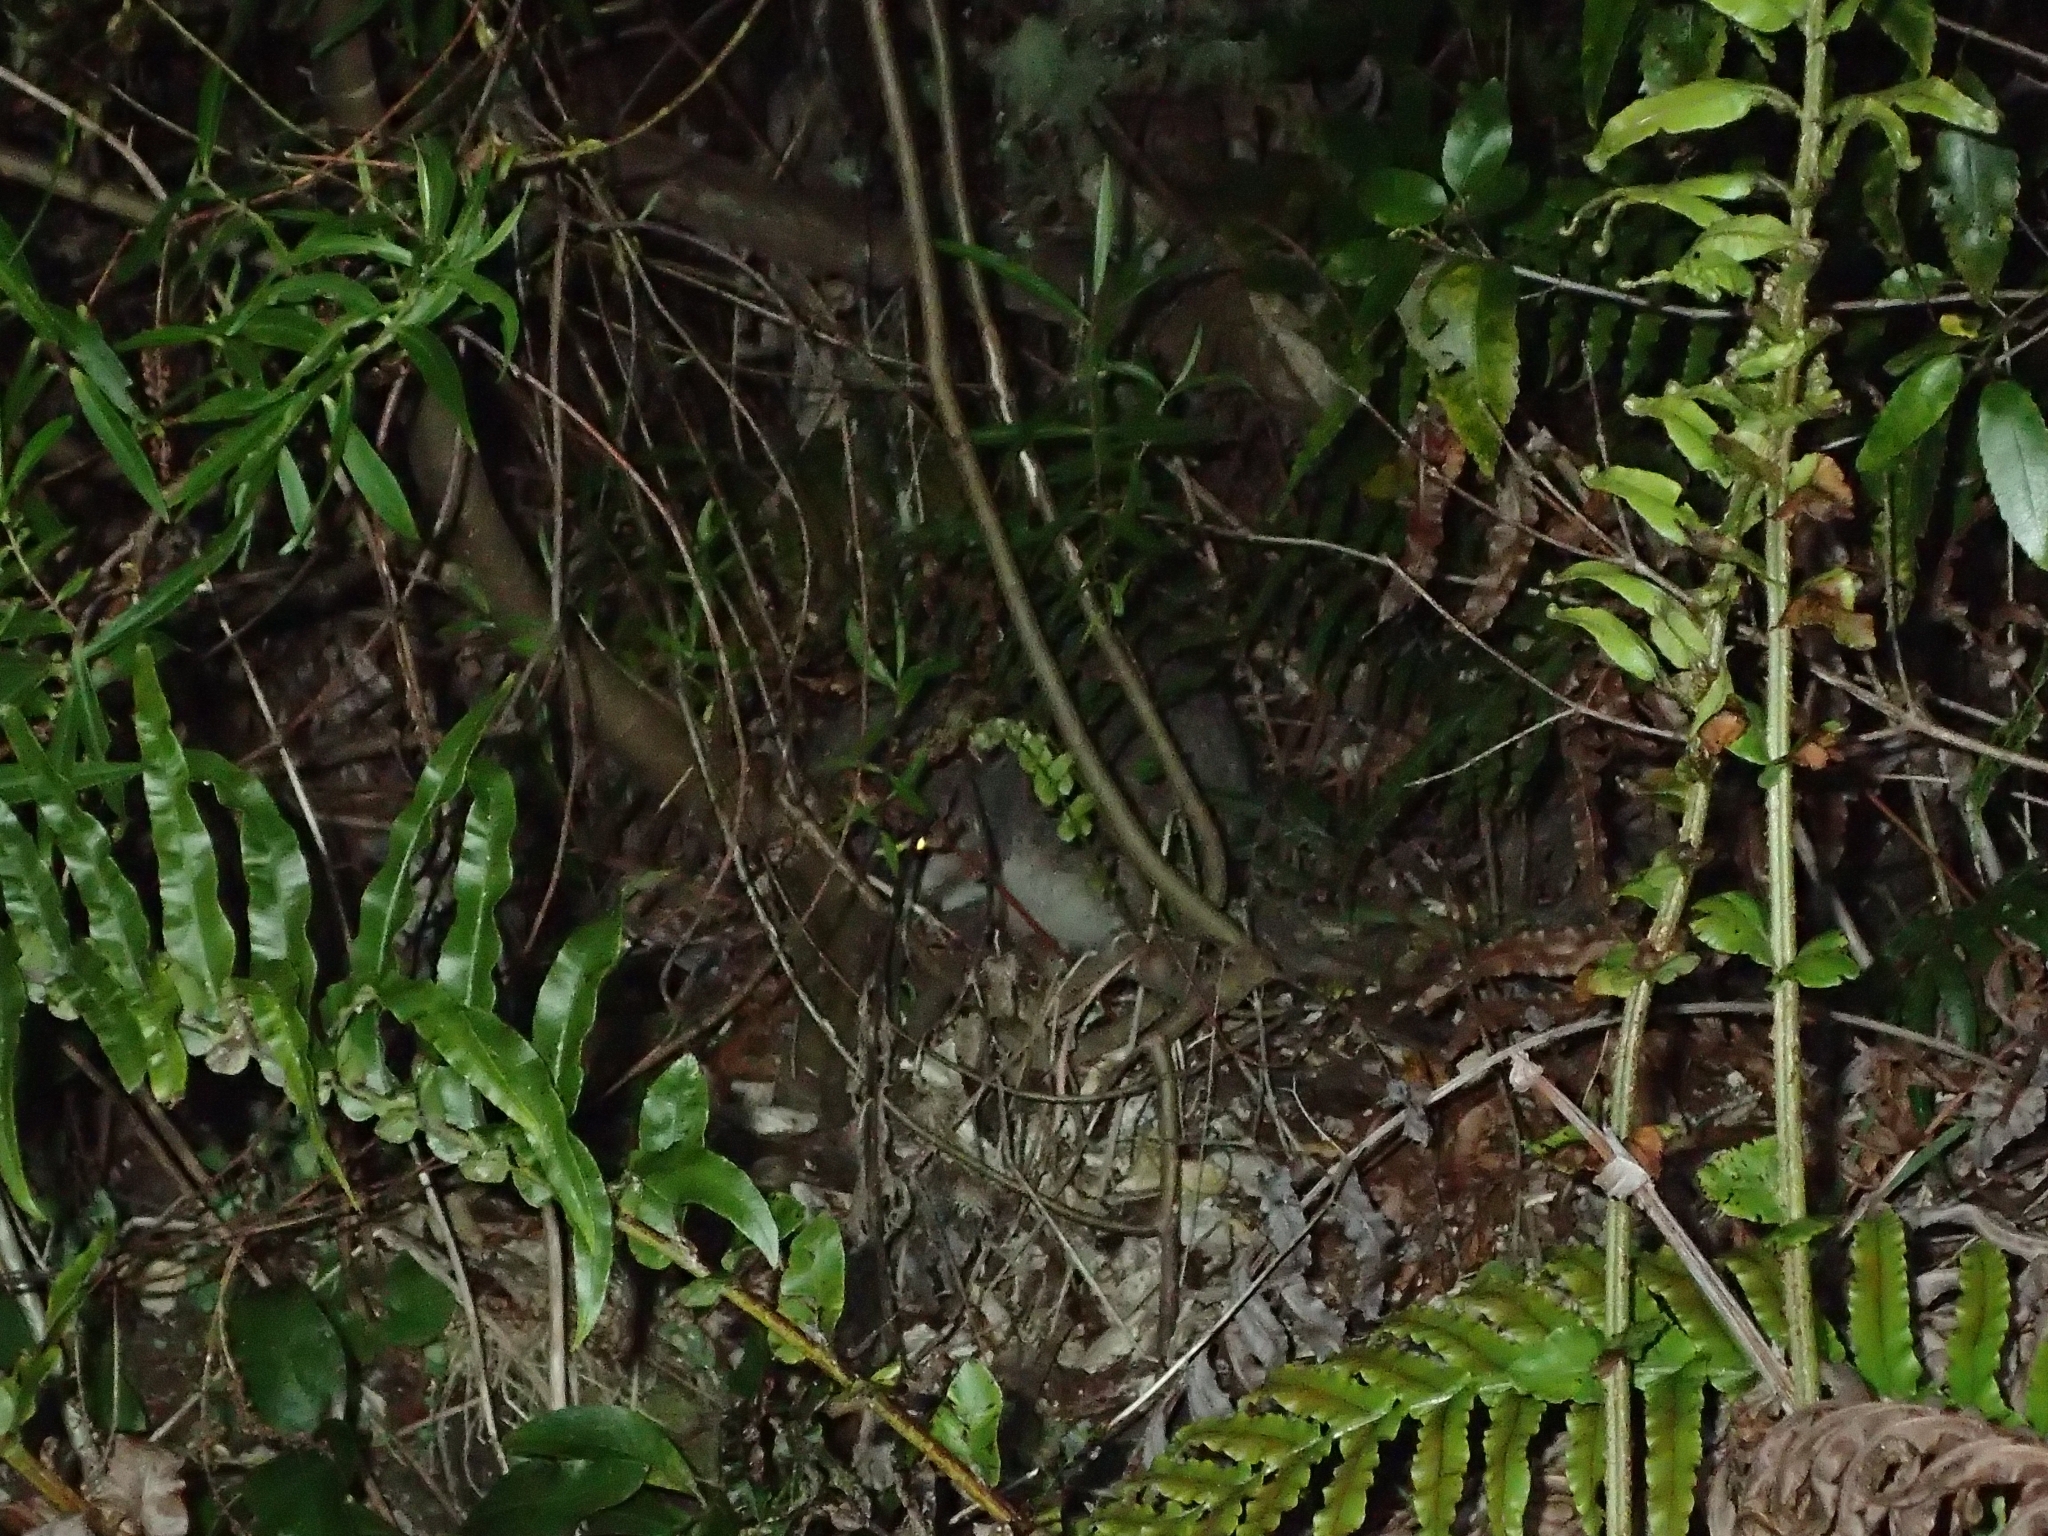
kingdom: Animalia
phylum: Chordata
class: Mammalia
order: Diprotodontia
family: Macropodidae
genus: Macropus
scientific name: Macropus eugenii
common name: Tammar wallaby
